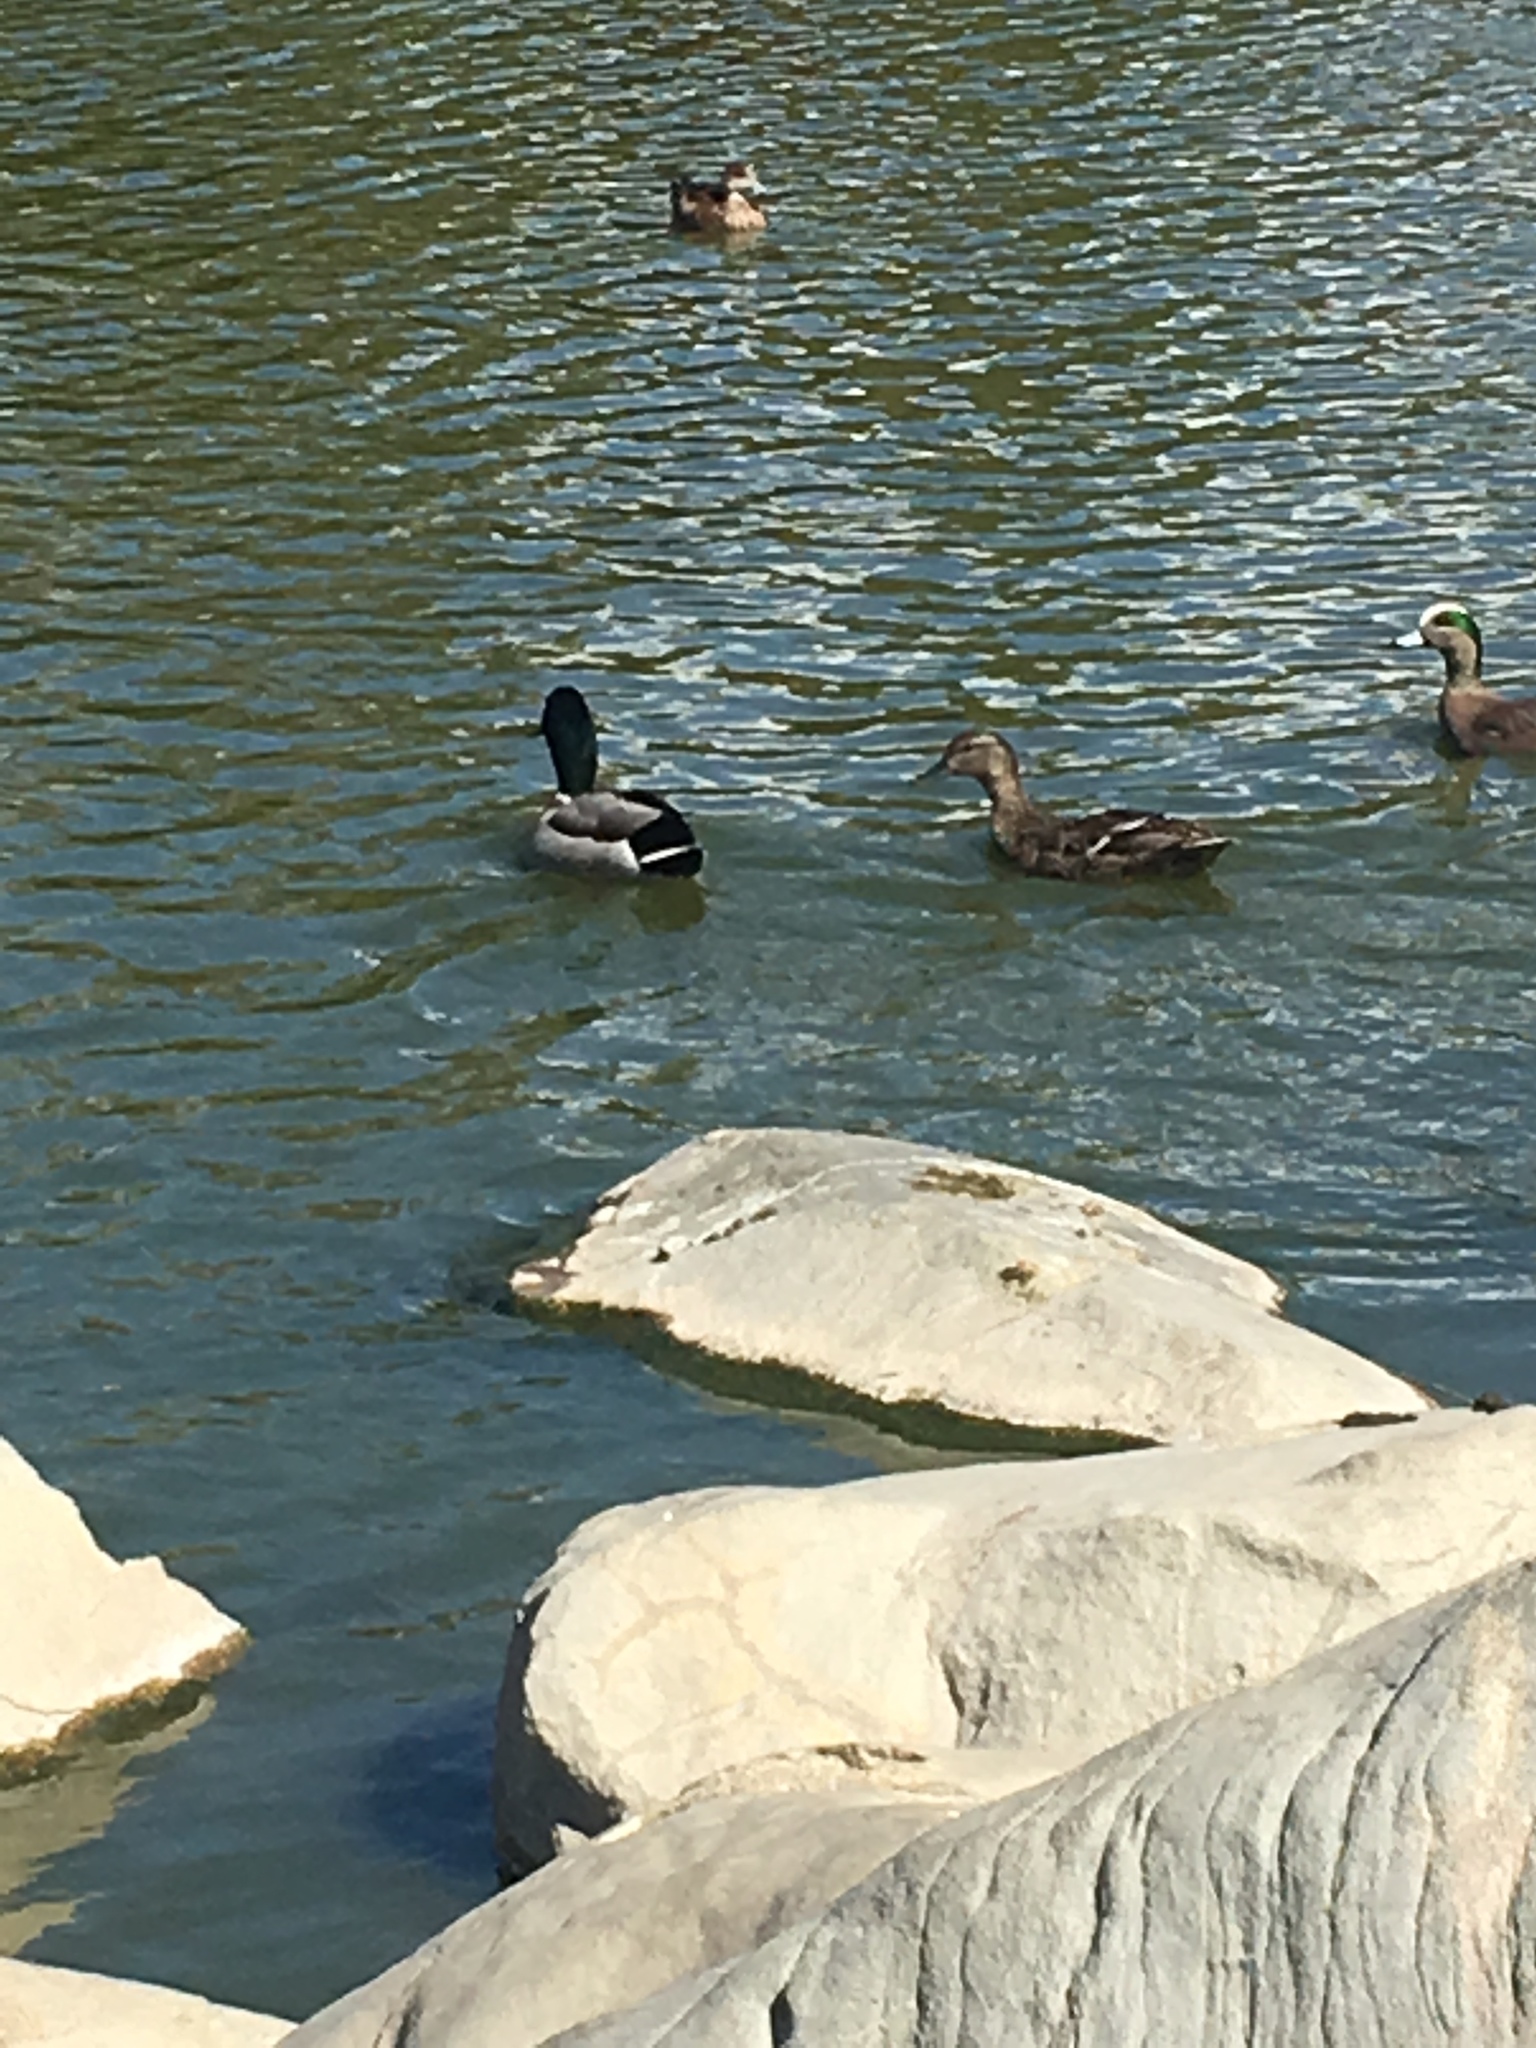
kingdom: Animalia
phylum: Chordata
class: Aves
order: Anseriformes
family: Anatidae
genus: Anas
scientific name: Anas platyrhynchos
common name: Mallard
